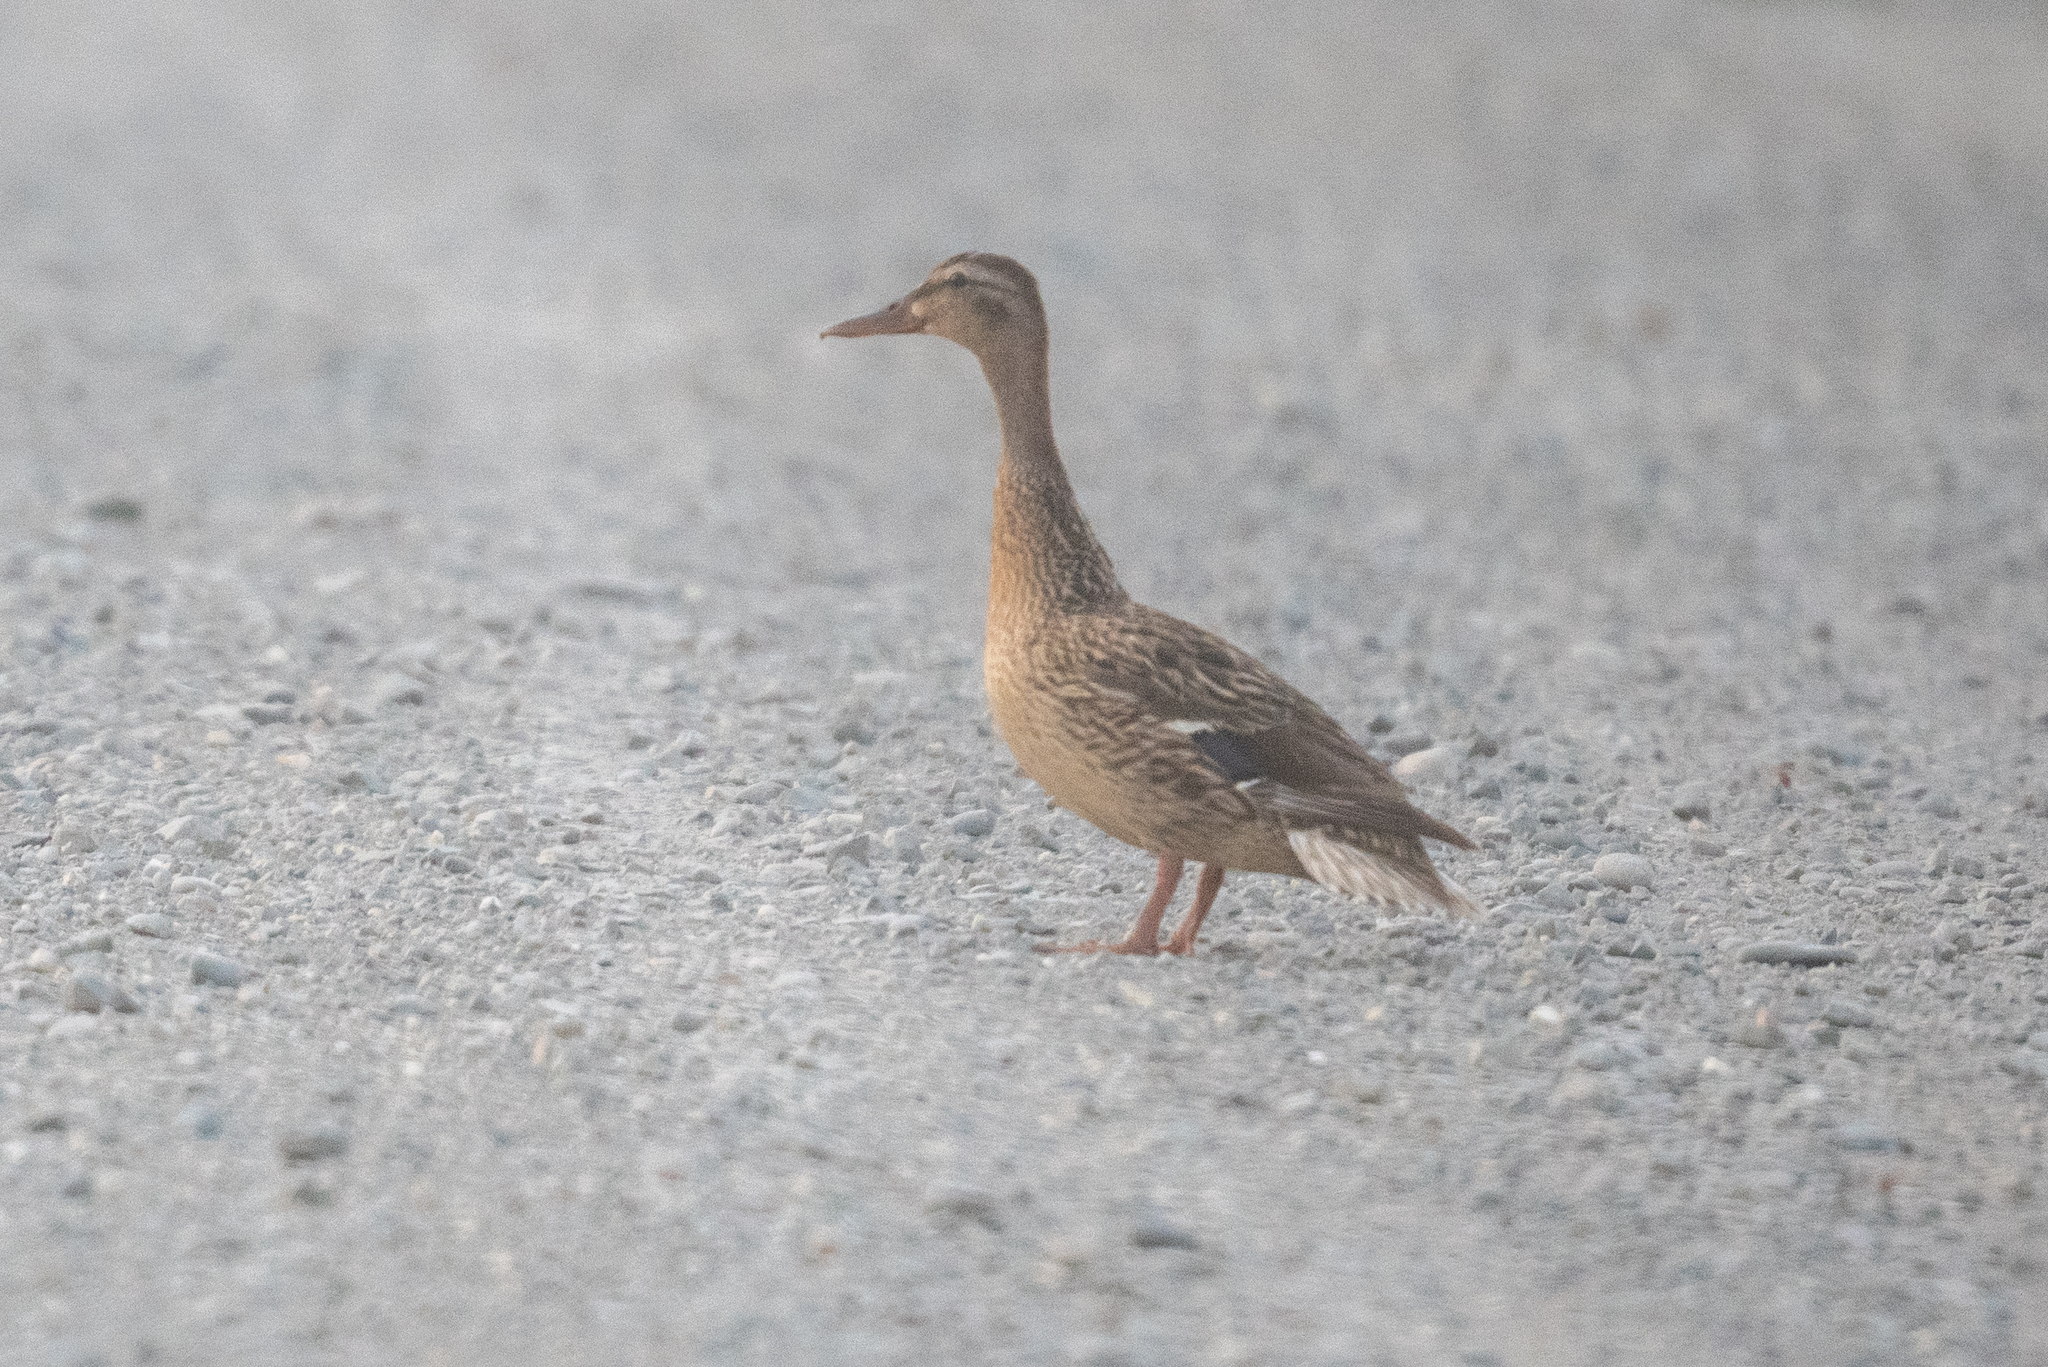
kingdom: Animalia
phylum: Chordata
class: Aves
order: Anseriformes
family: Anatidae
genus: Anas
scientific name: Anas platyrhynchos
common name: Mallard
